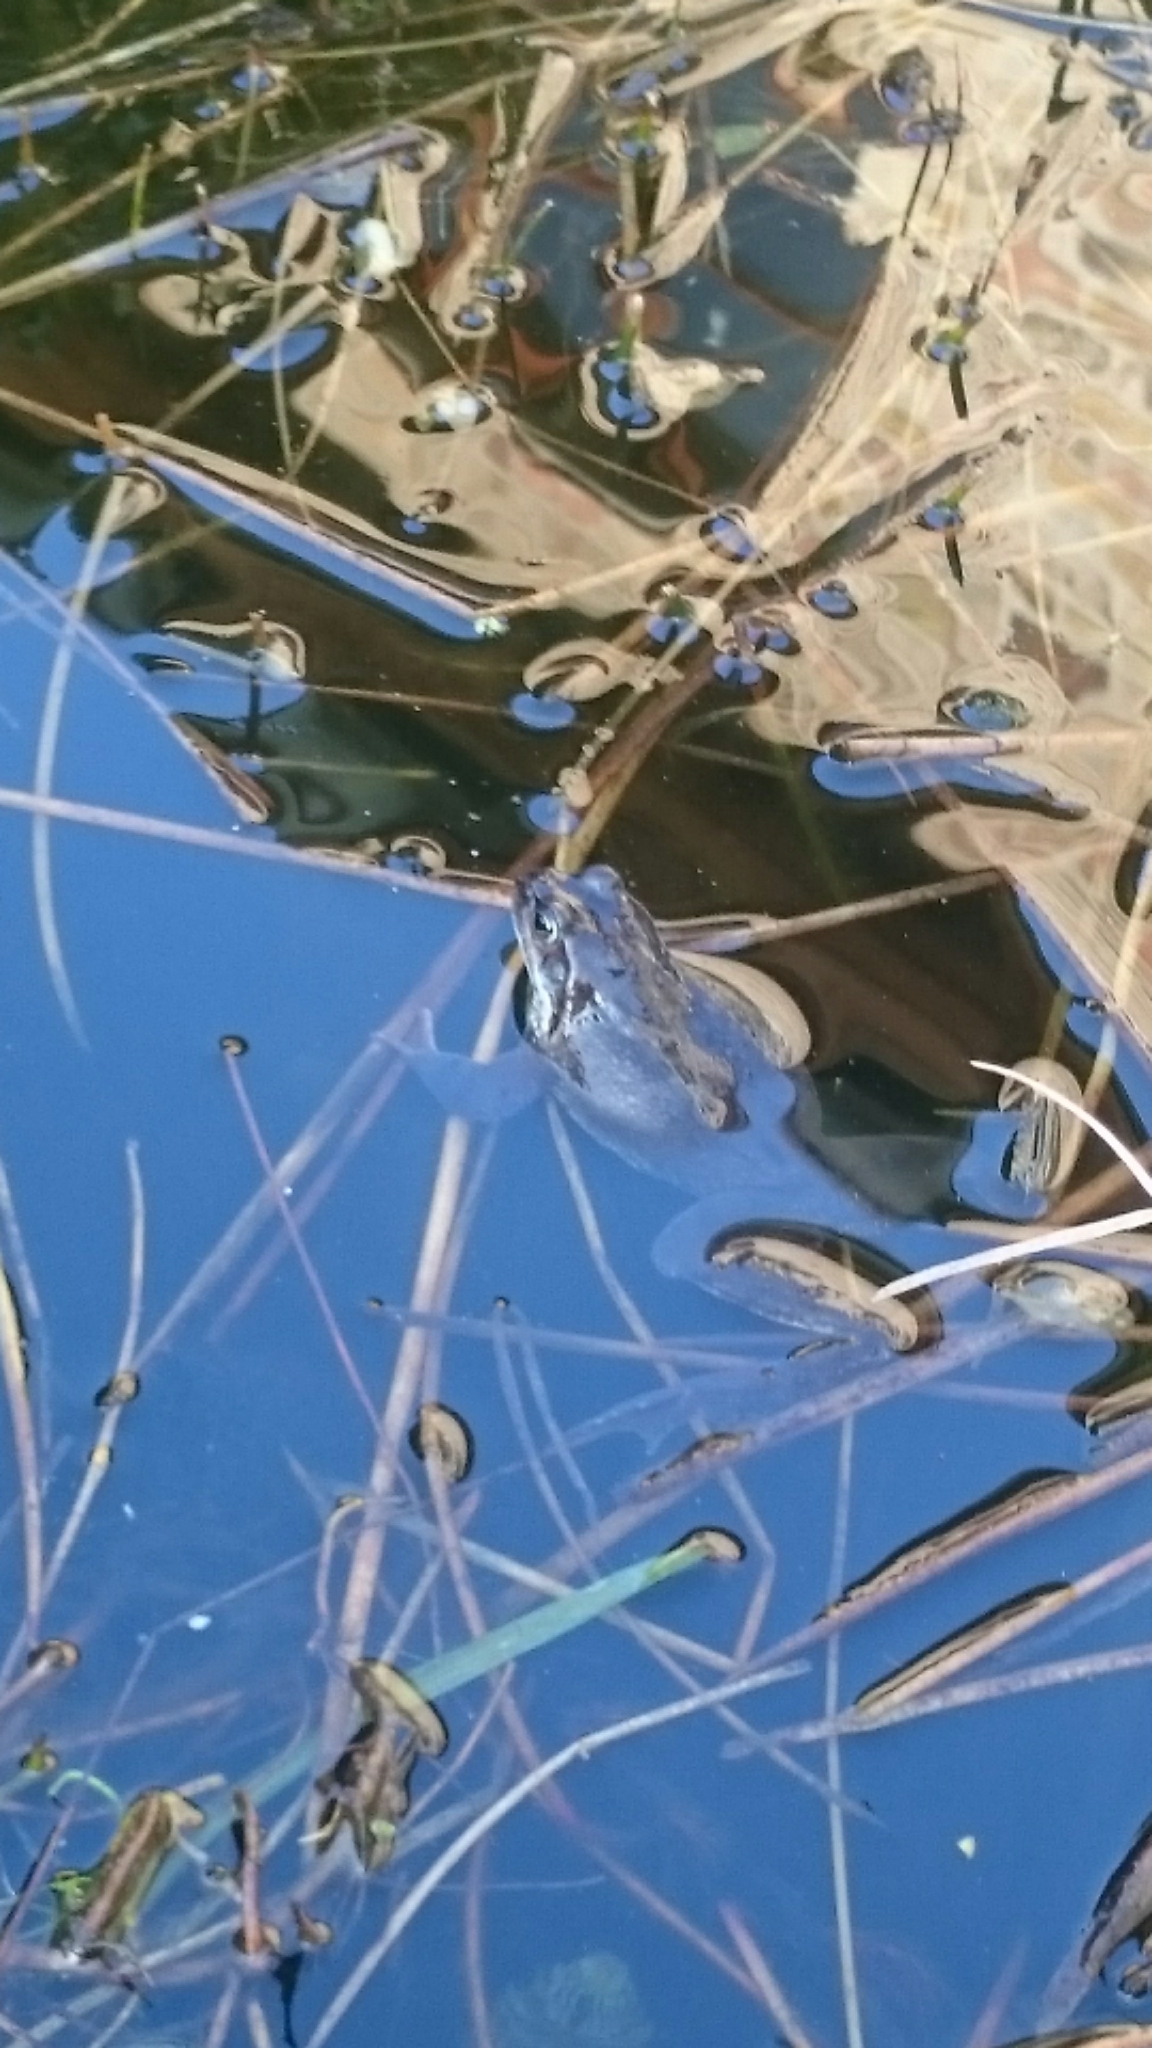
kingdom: Animalia
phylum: Chordata
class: Amphibia
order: Anura
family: Ranidae
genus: Rana
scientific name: Rana temporaria
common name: Common frog
